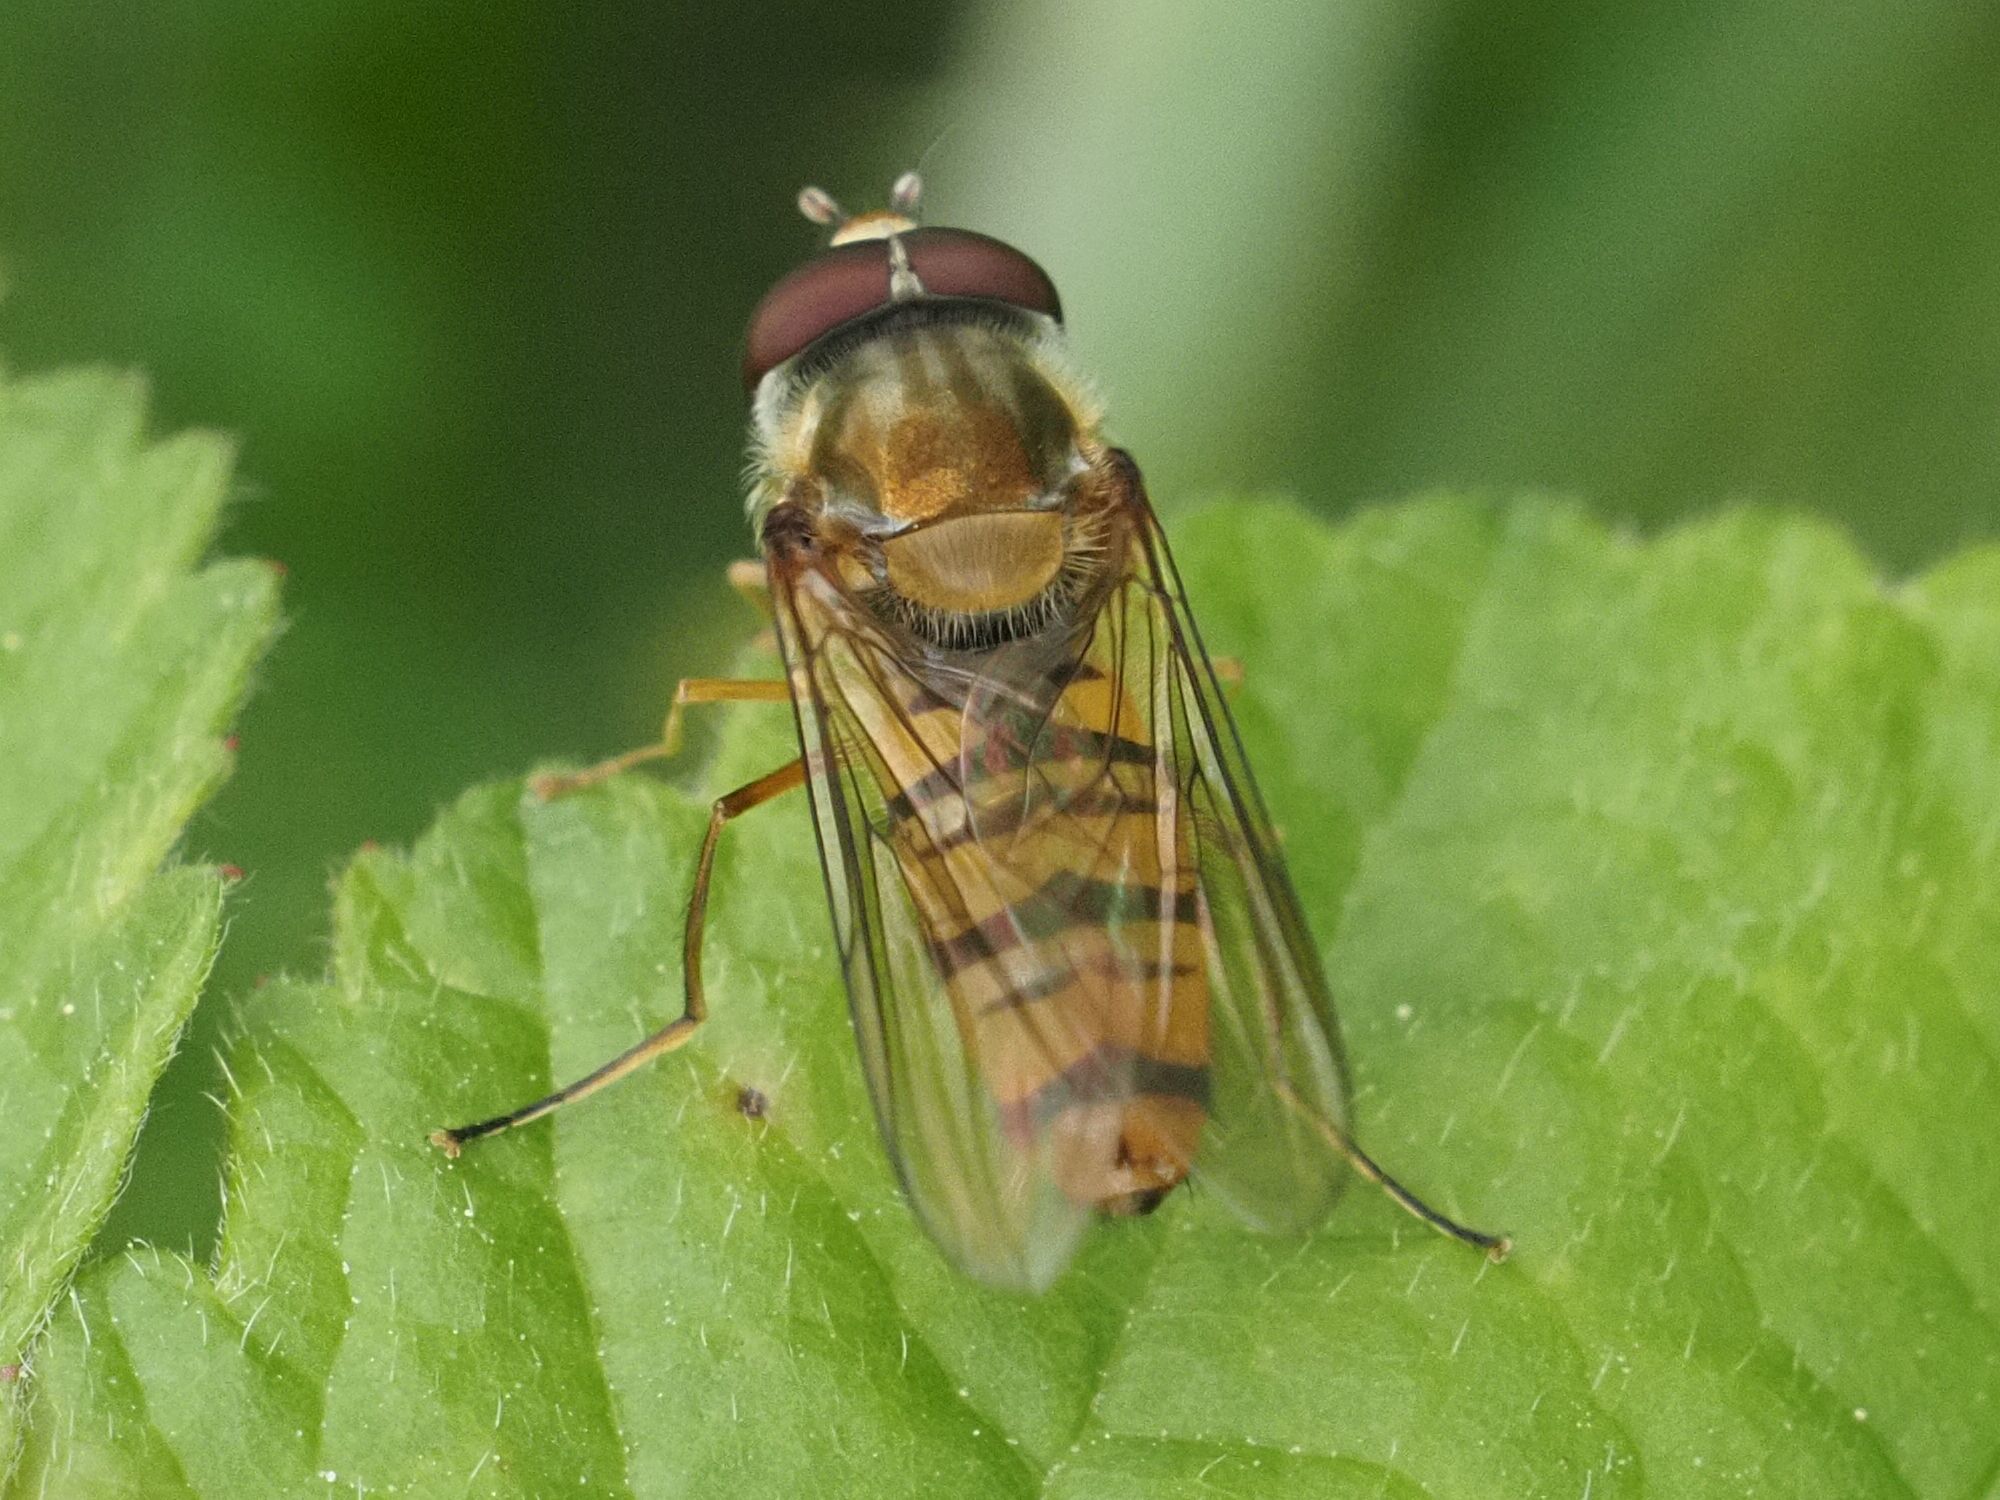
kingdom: Animalia
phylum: Arthropoda
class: Insecta
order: Diptera
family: Syrphidae
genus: Episyrphus
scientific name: Episyrphus balteatus
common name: Marmalade hoverfly
